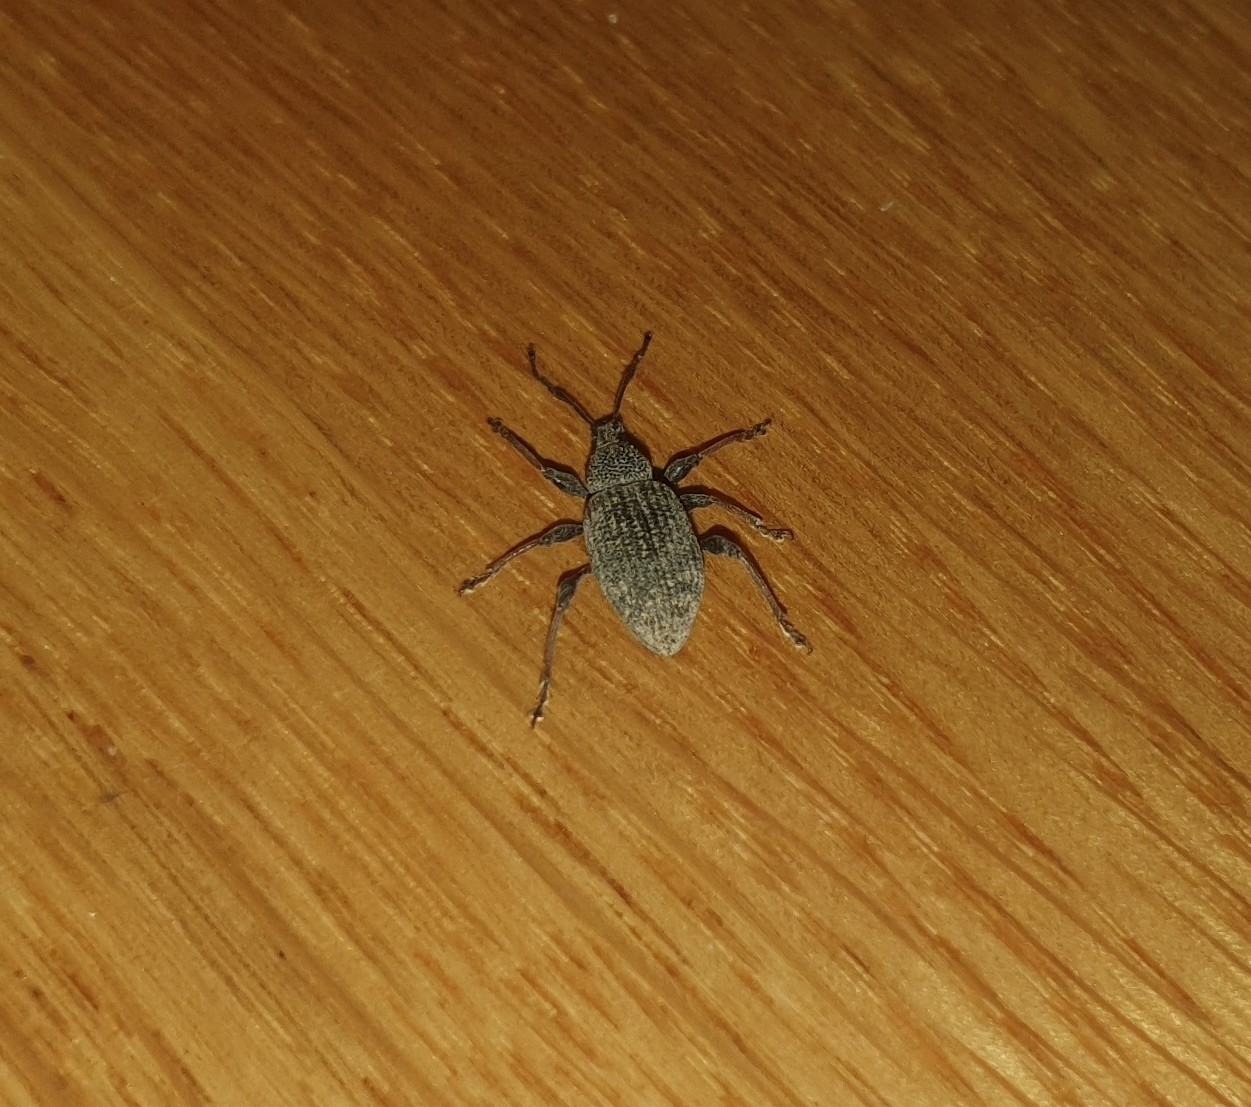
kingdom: Animalia
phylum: Arthropoda
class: Insecta
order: Coleoptera
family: Curculionidae
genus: Otiorhynchus
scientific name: Otiorhynchus sulcatus
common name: Black vine weevil
